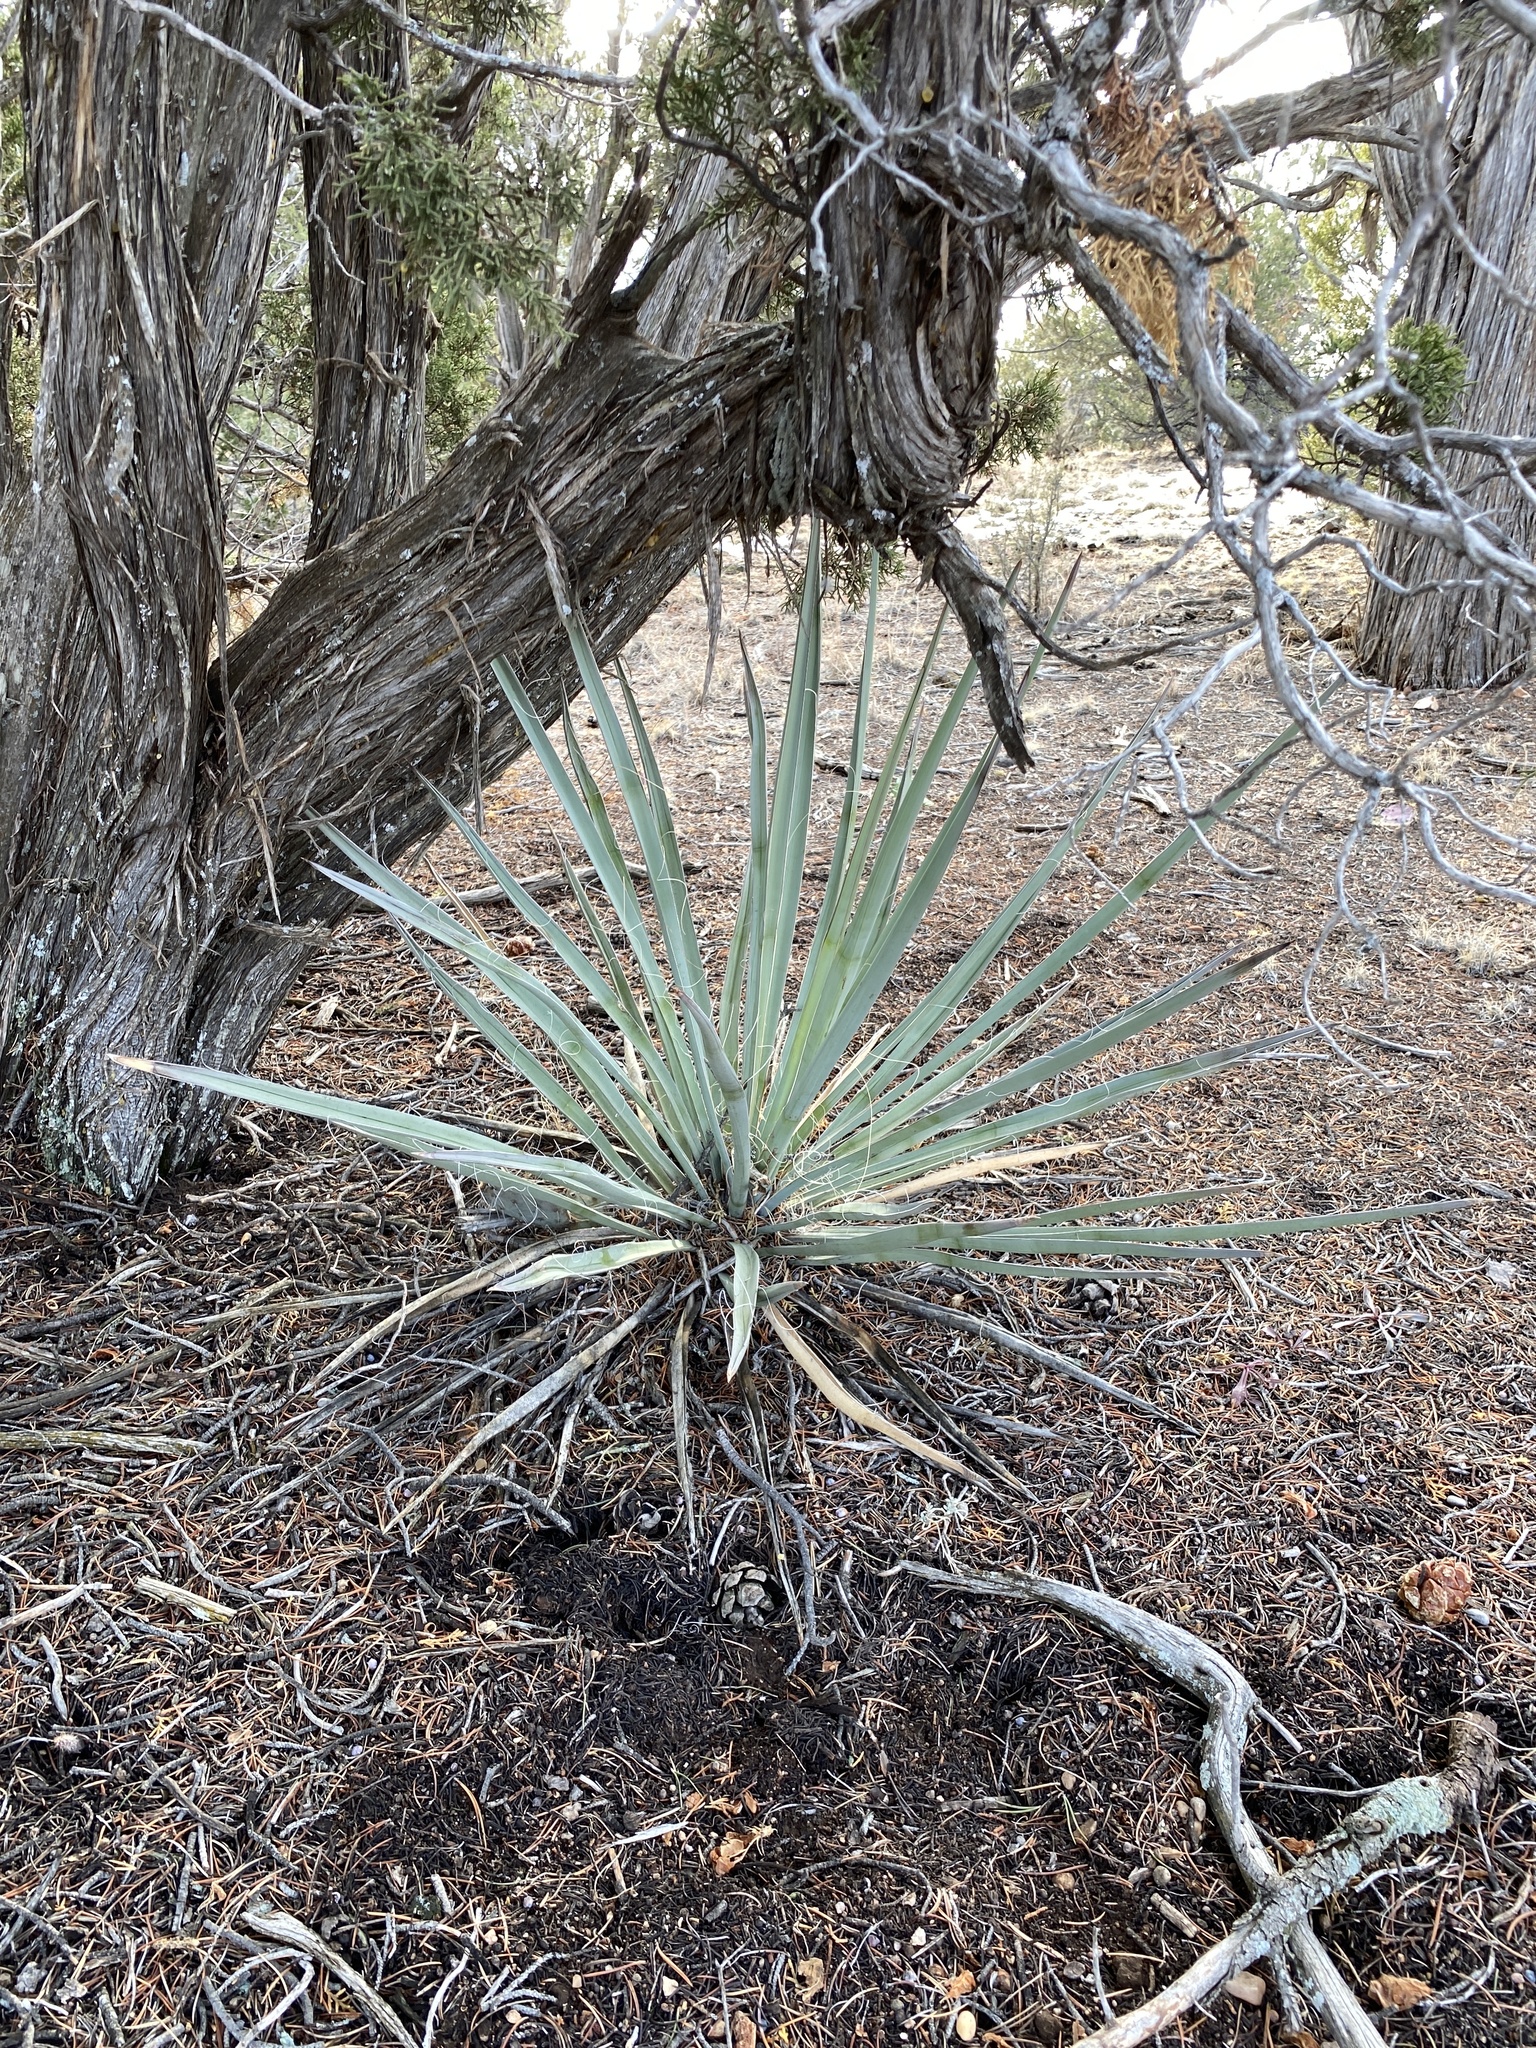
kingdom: Plantae
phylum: Tracheophyta
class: Liliopsida
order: Asparagales
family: Asparagaceae
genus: Yucca
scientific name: Yucca baccata
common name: Banana yucca
